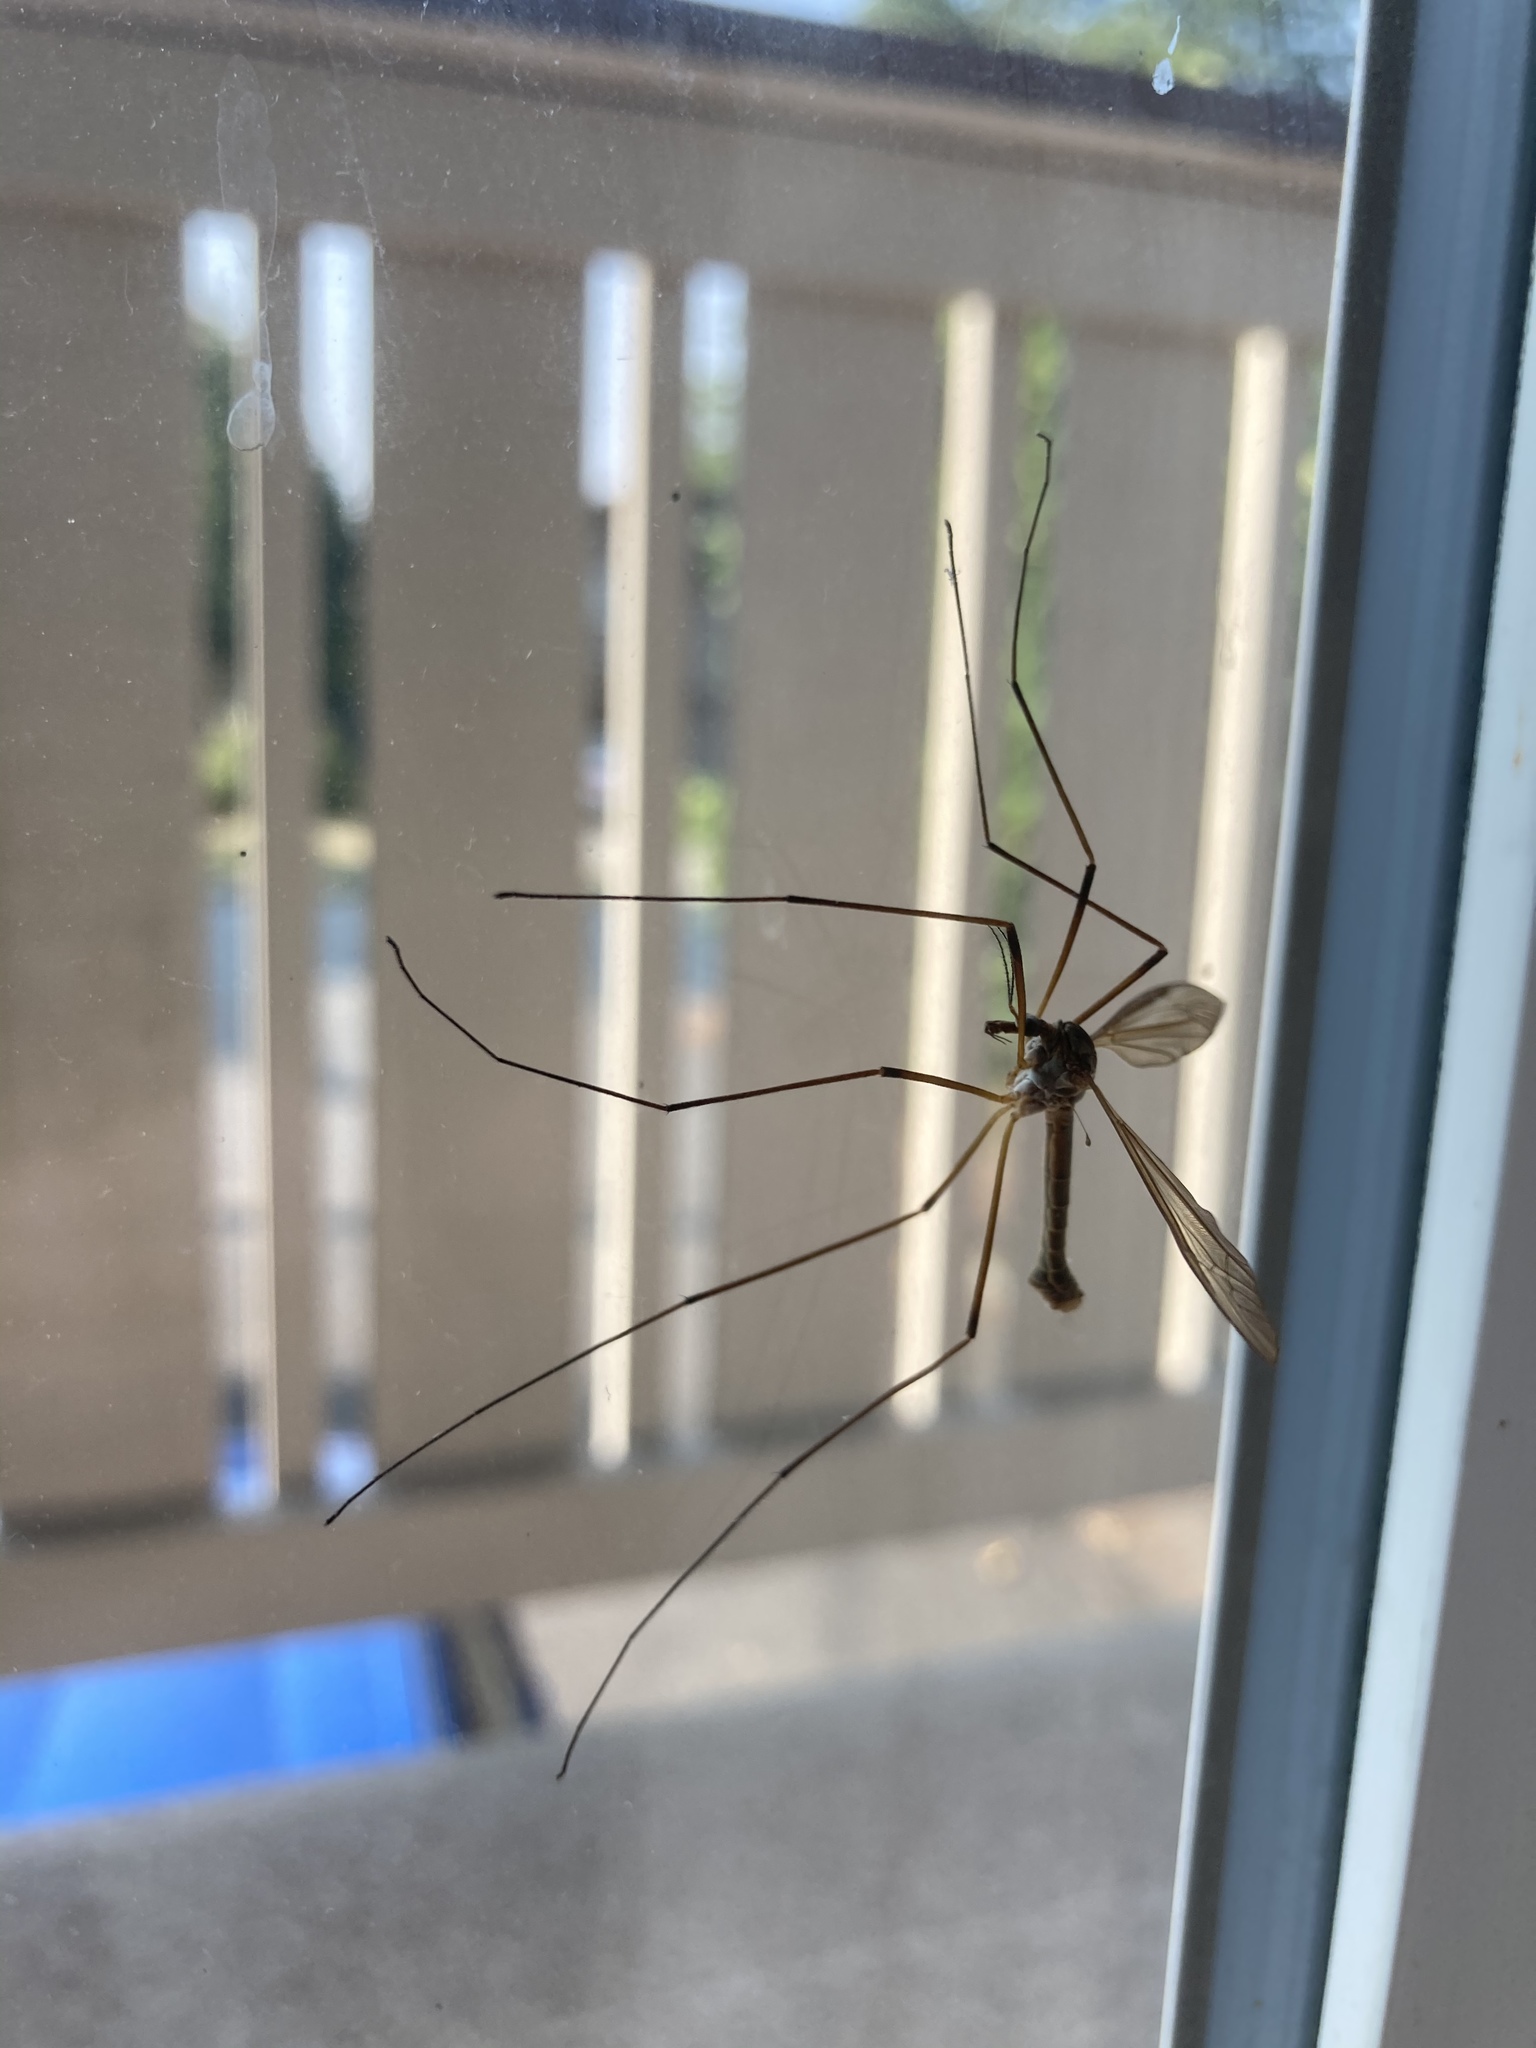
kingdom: Animalia
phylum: Arthropoda
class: Insecta
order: Diptera
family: Tipulidae
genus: Tipula
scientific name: Tipula
